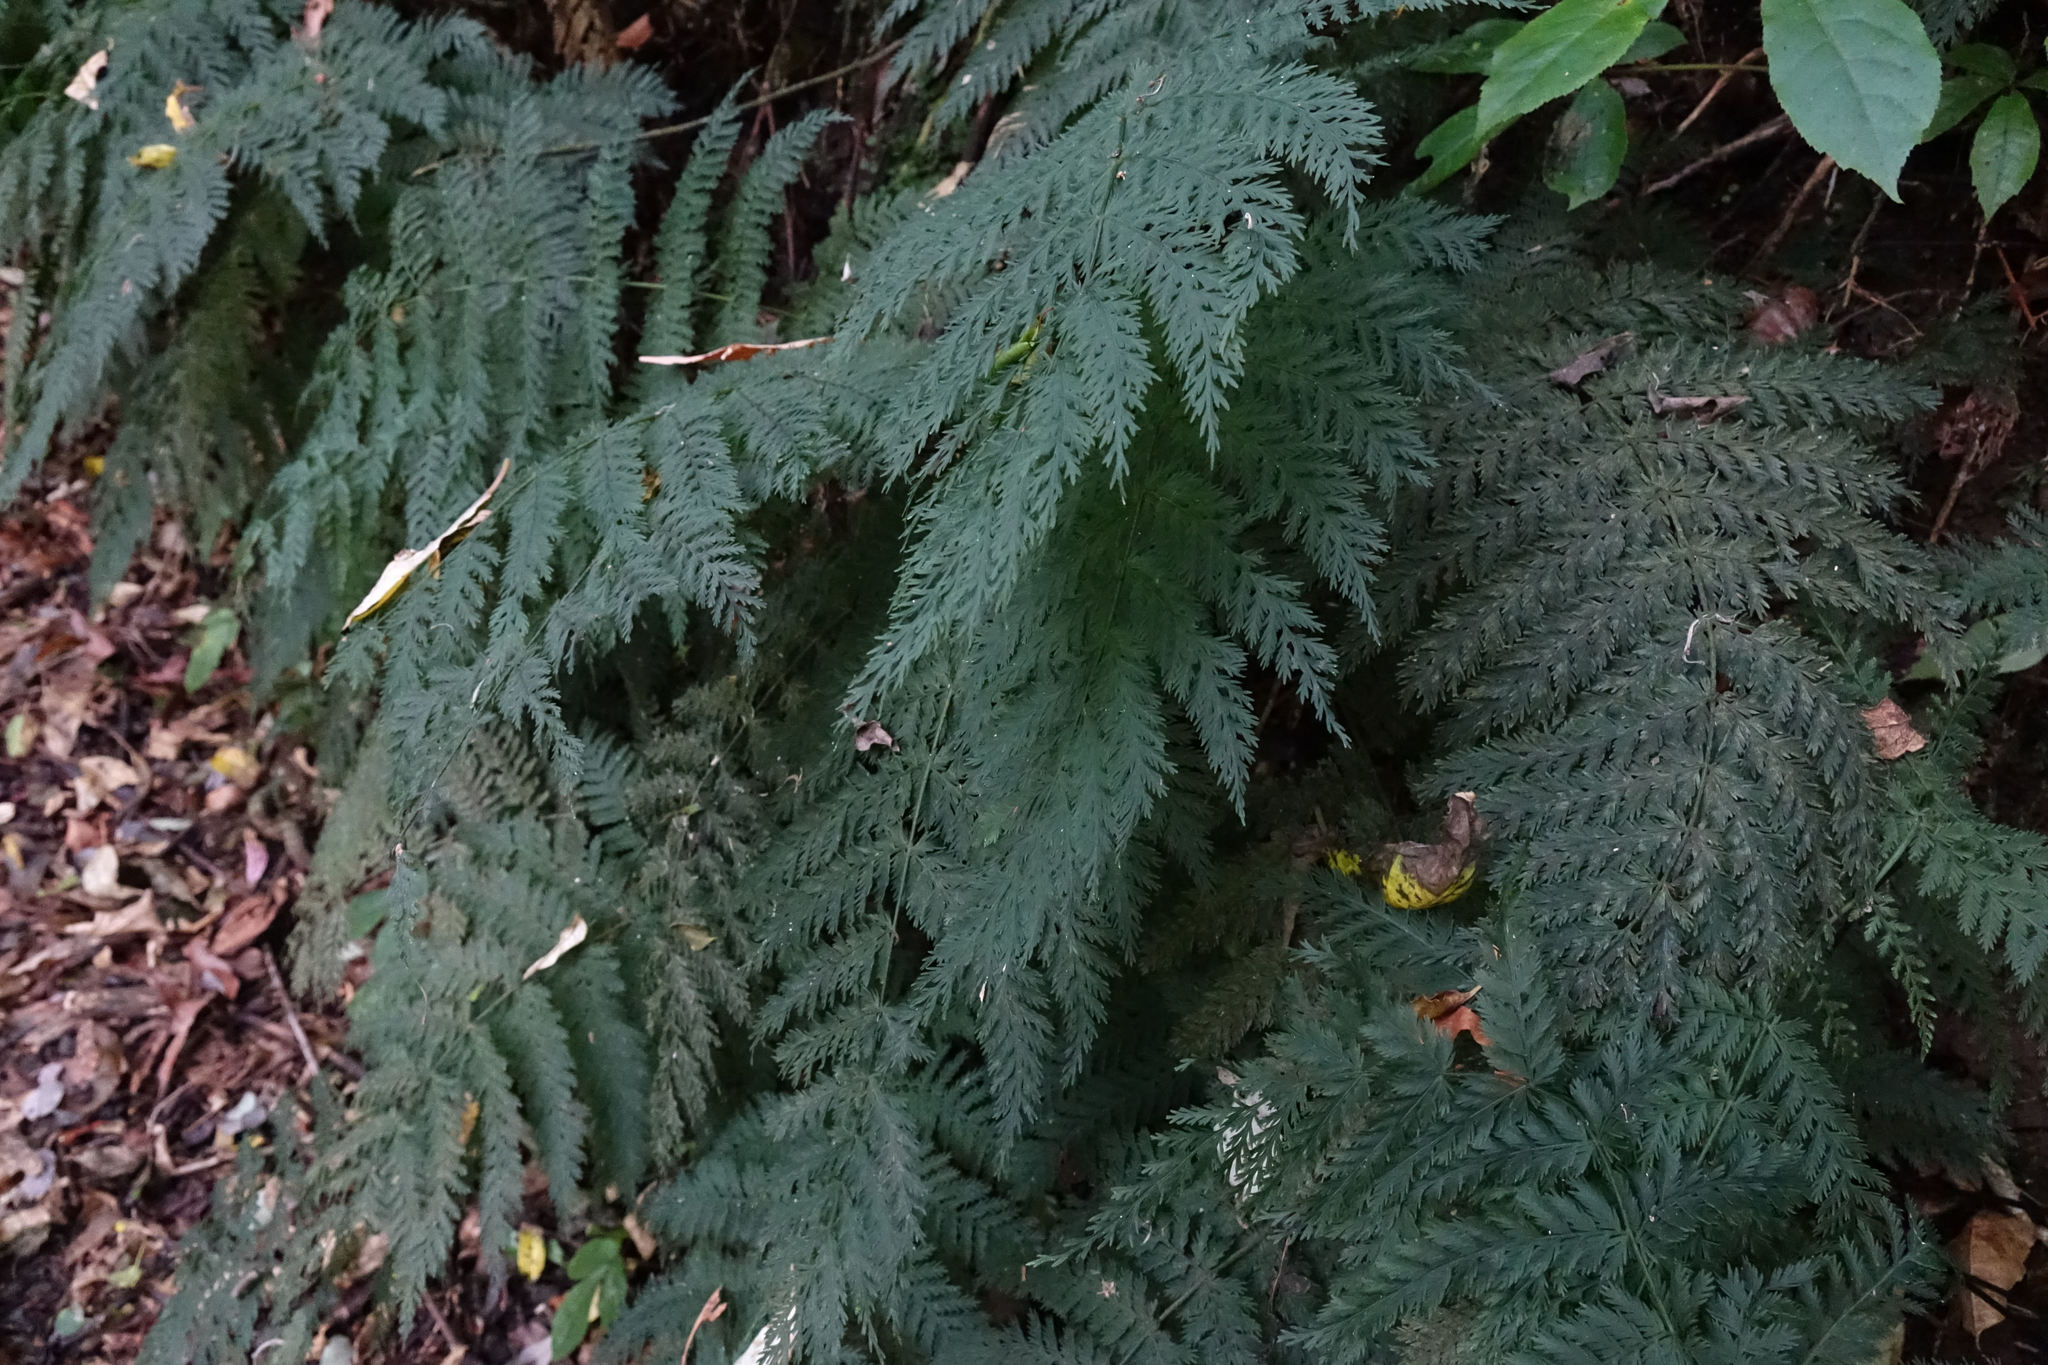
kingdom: Plantae
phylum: Tracheophyta
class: Polypodiopsida
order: Osmundales
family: Osmundaceae
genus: Leptopteris
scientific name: Leptopteris hymenophylloides
